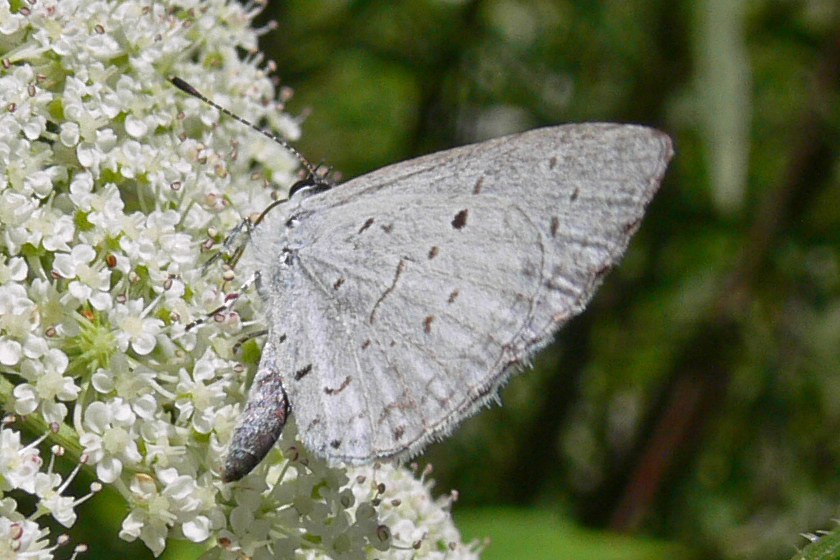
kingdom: Animalia
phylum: Arthropoda
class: Insecta
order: Lepidoptera
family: Lycaenidae
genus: Cyaniris
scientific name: Cyaniris neglecta
